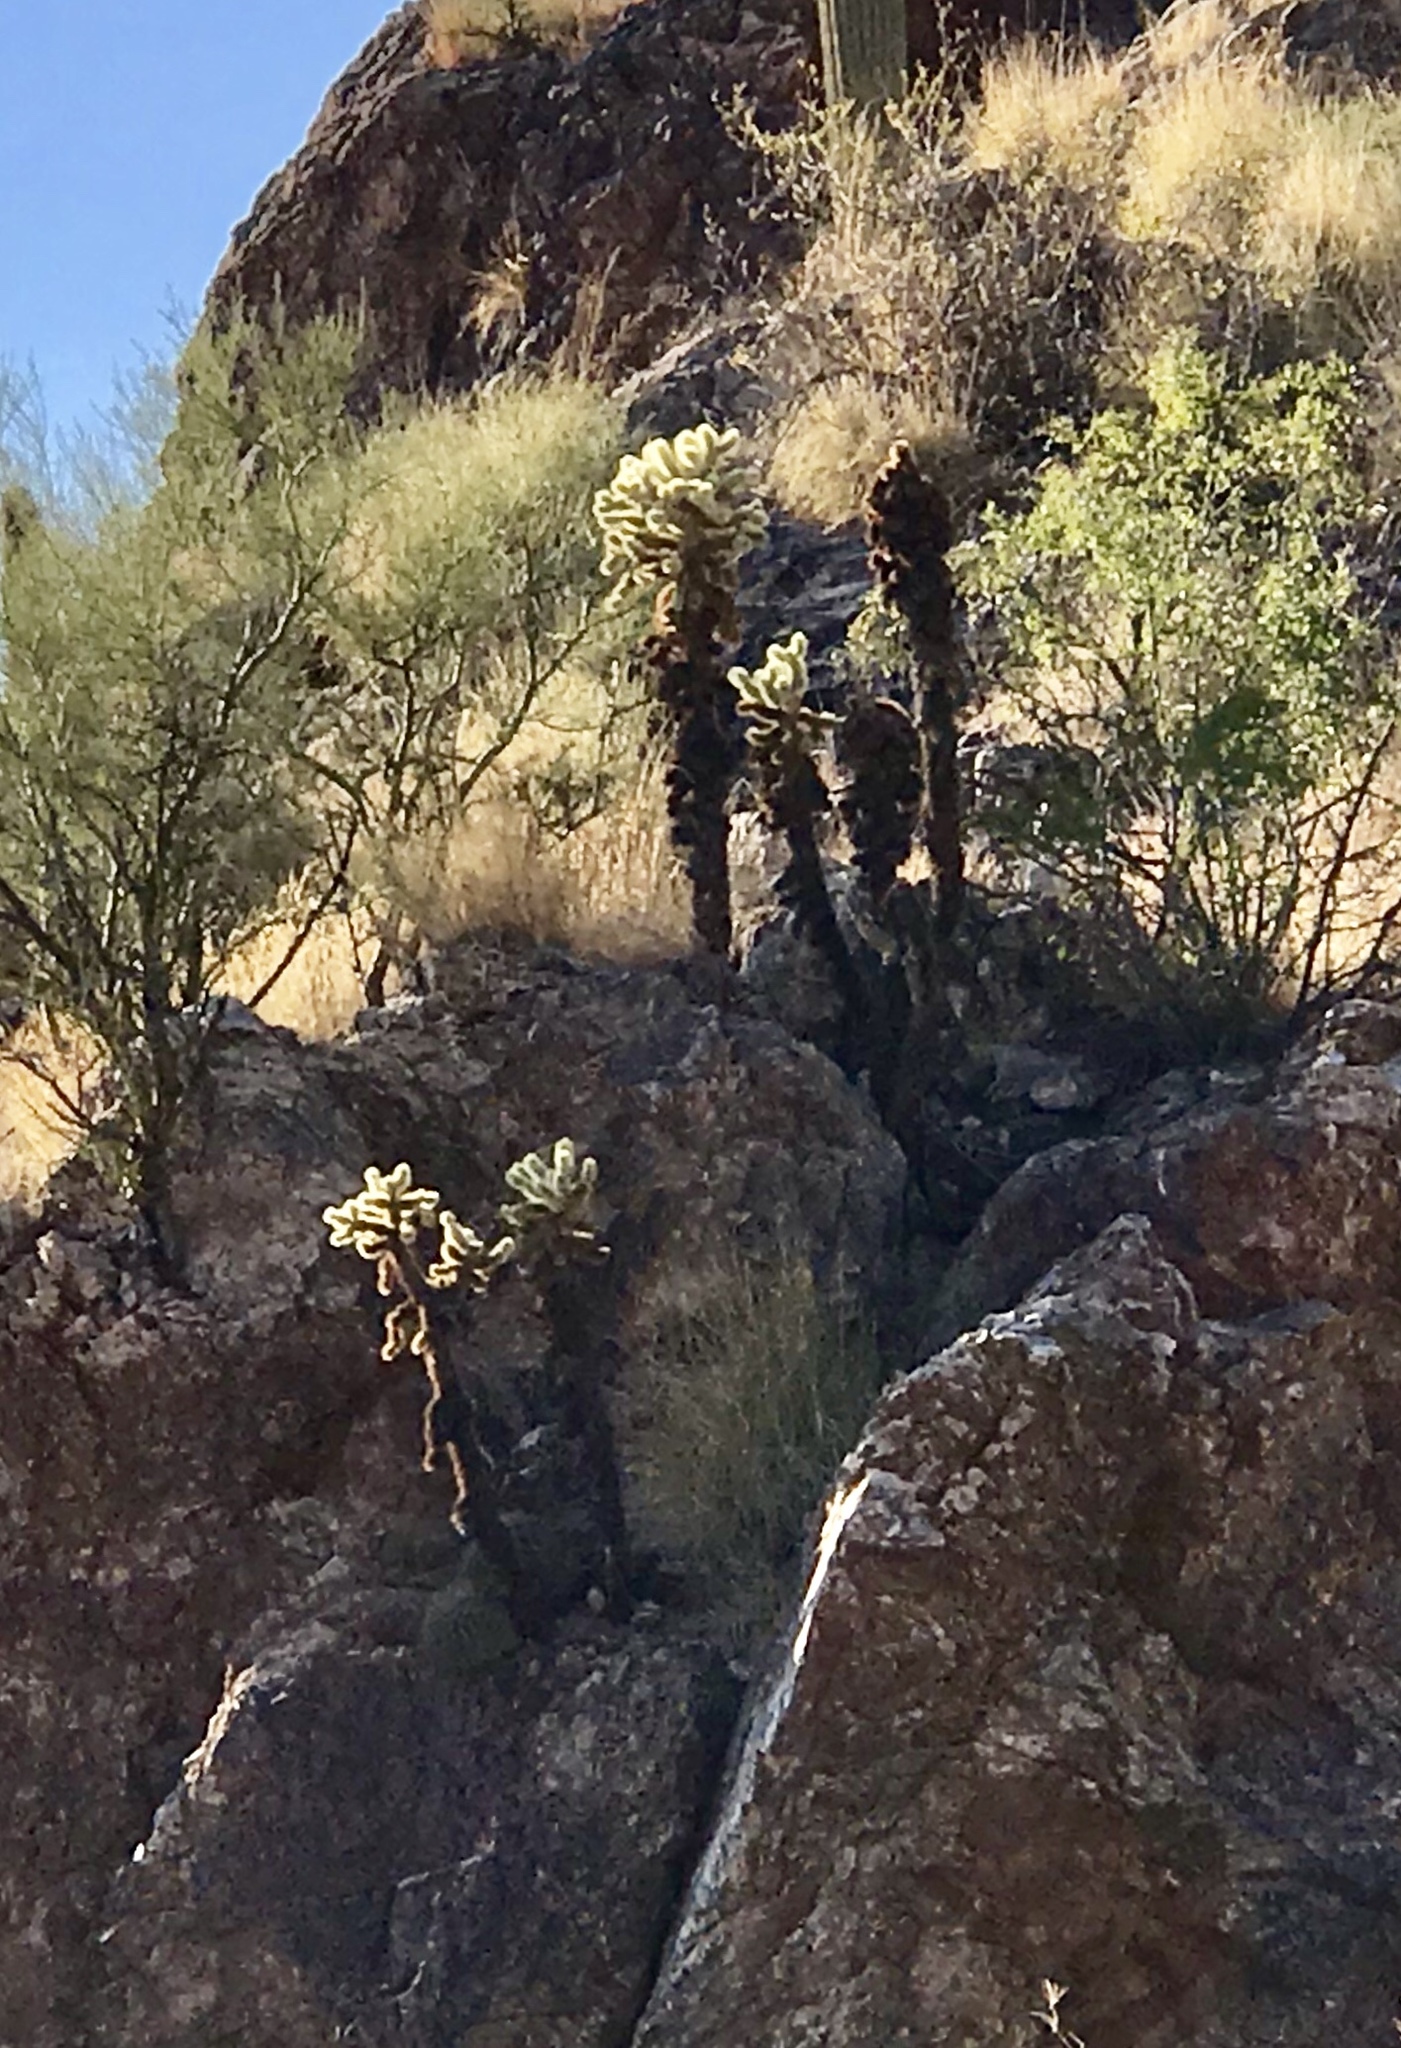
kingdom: Plantae
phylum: Tracheophyta
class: Magnoliopsida
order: Caryophyllales
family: Cactaceae
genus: Cylindropuntia
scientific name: Cylindropuntia fosbergii
